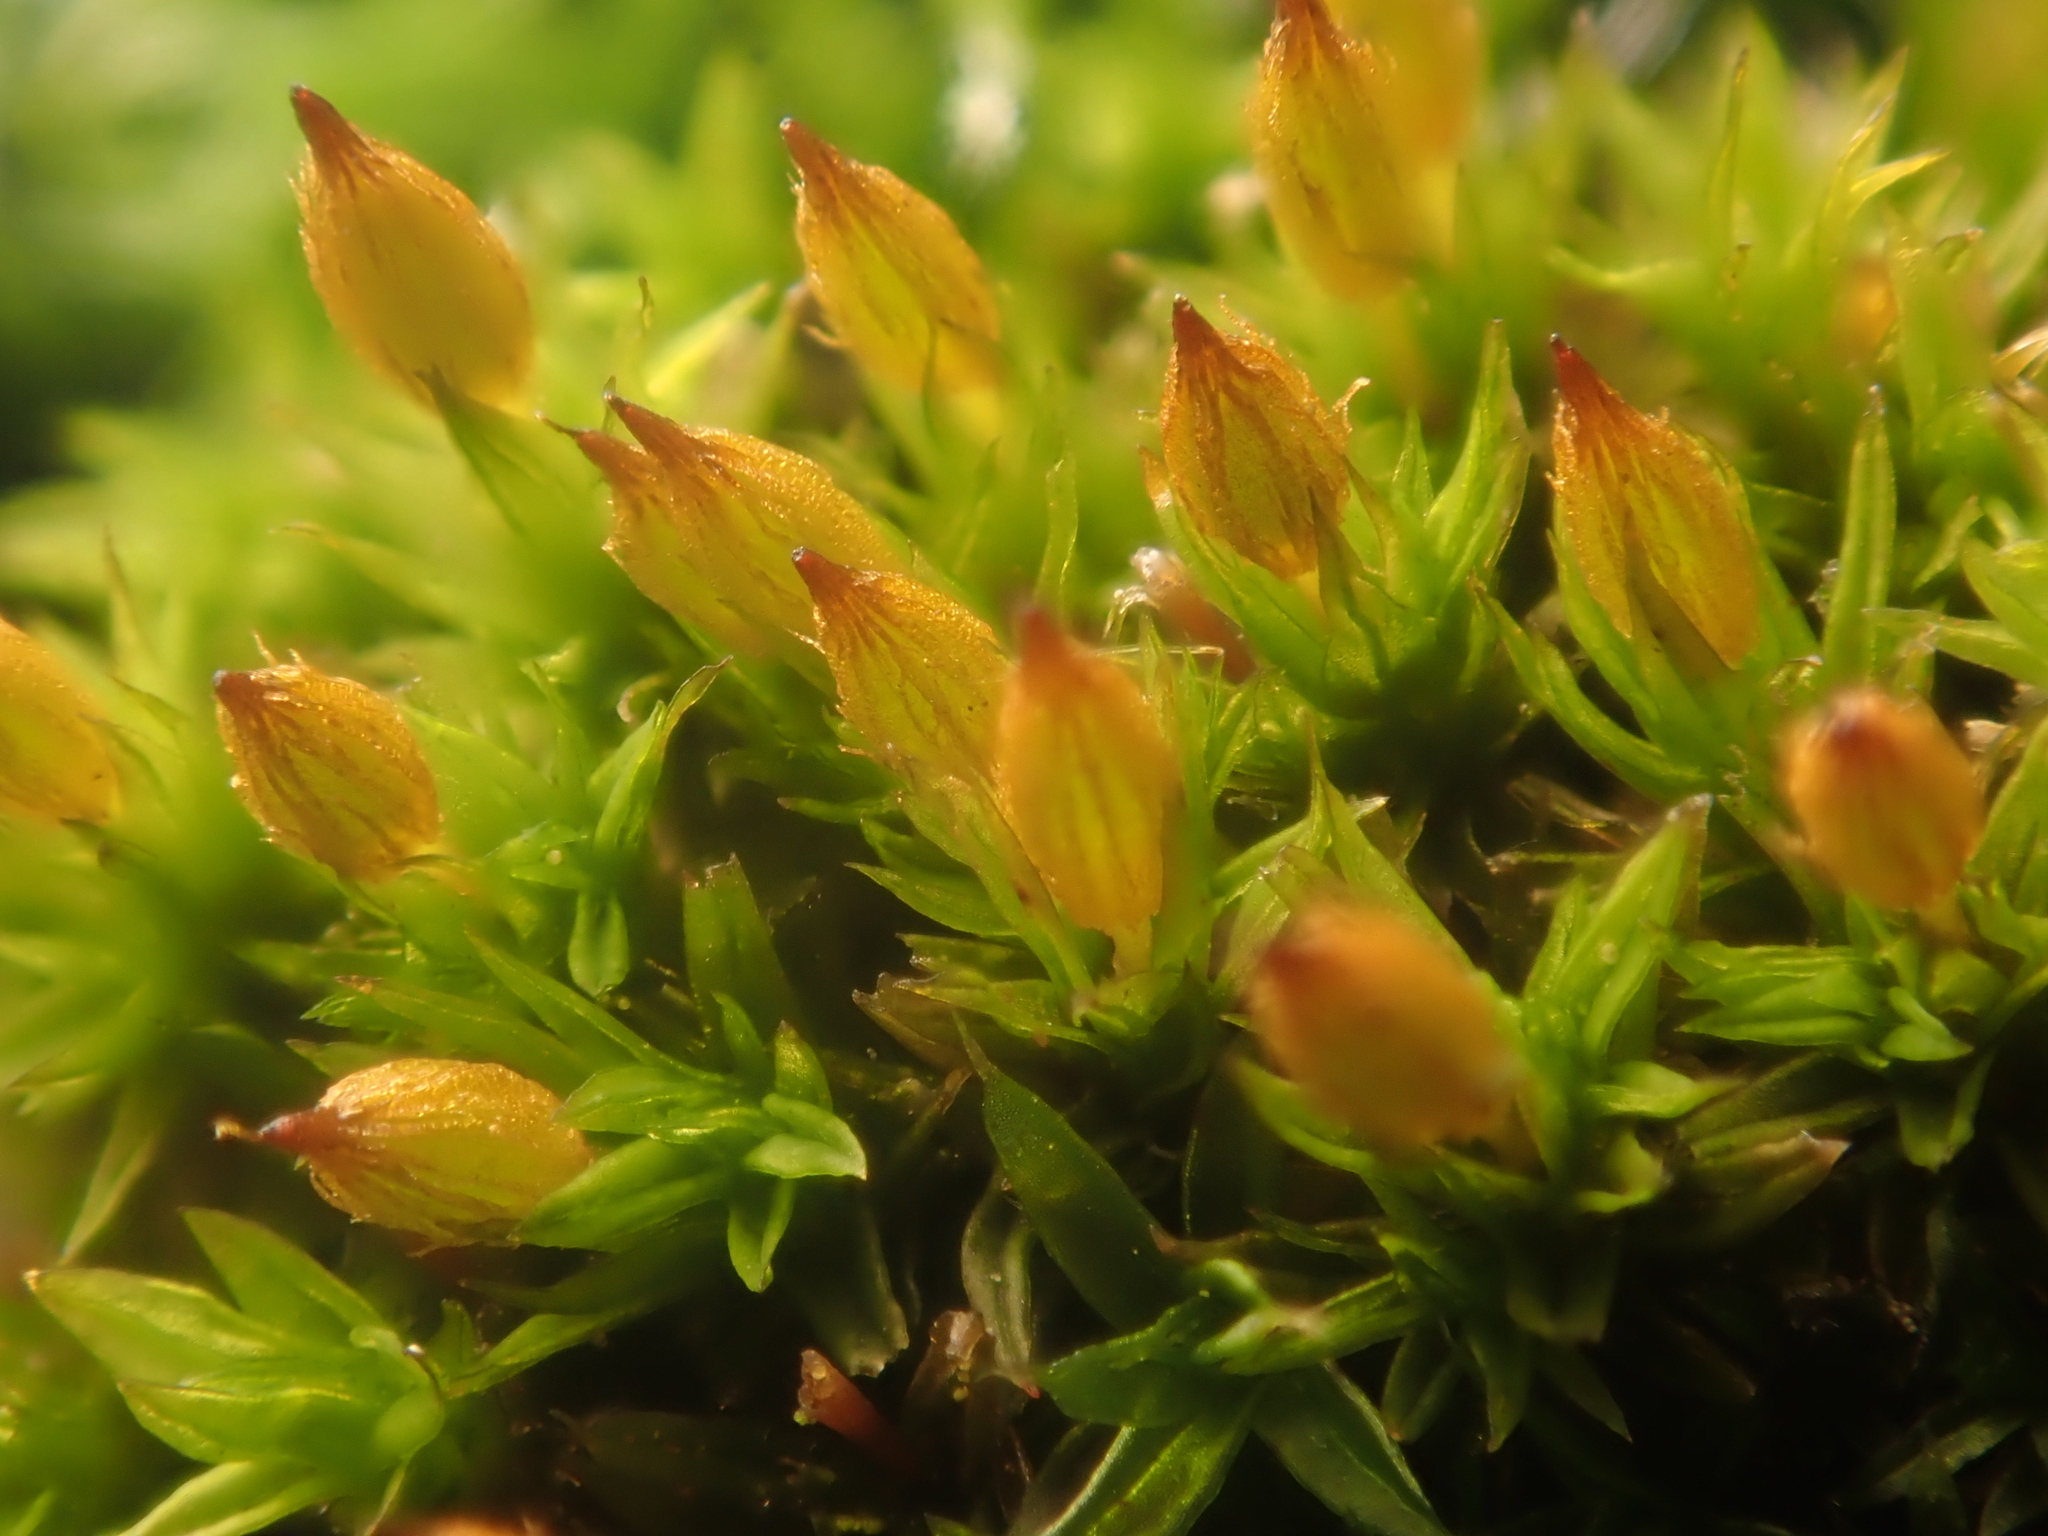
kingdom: Plantae
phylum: Bryophyta
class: Bryopsida
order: Orthotrichales
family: Orthotrichaceae
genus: Orthotrichum
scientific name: Orthotrichum anomalum
